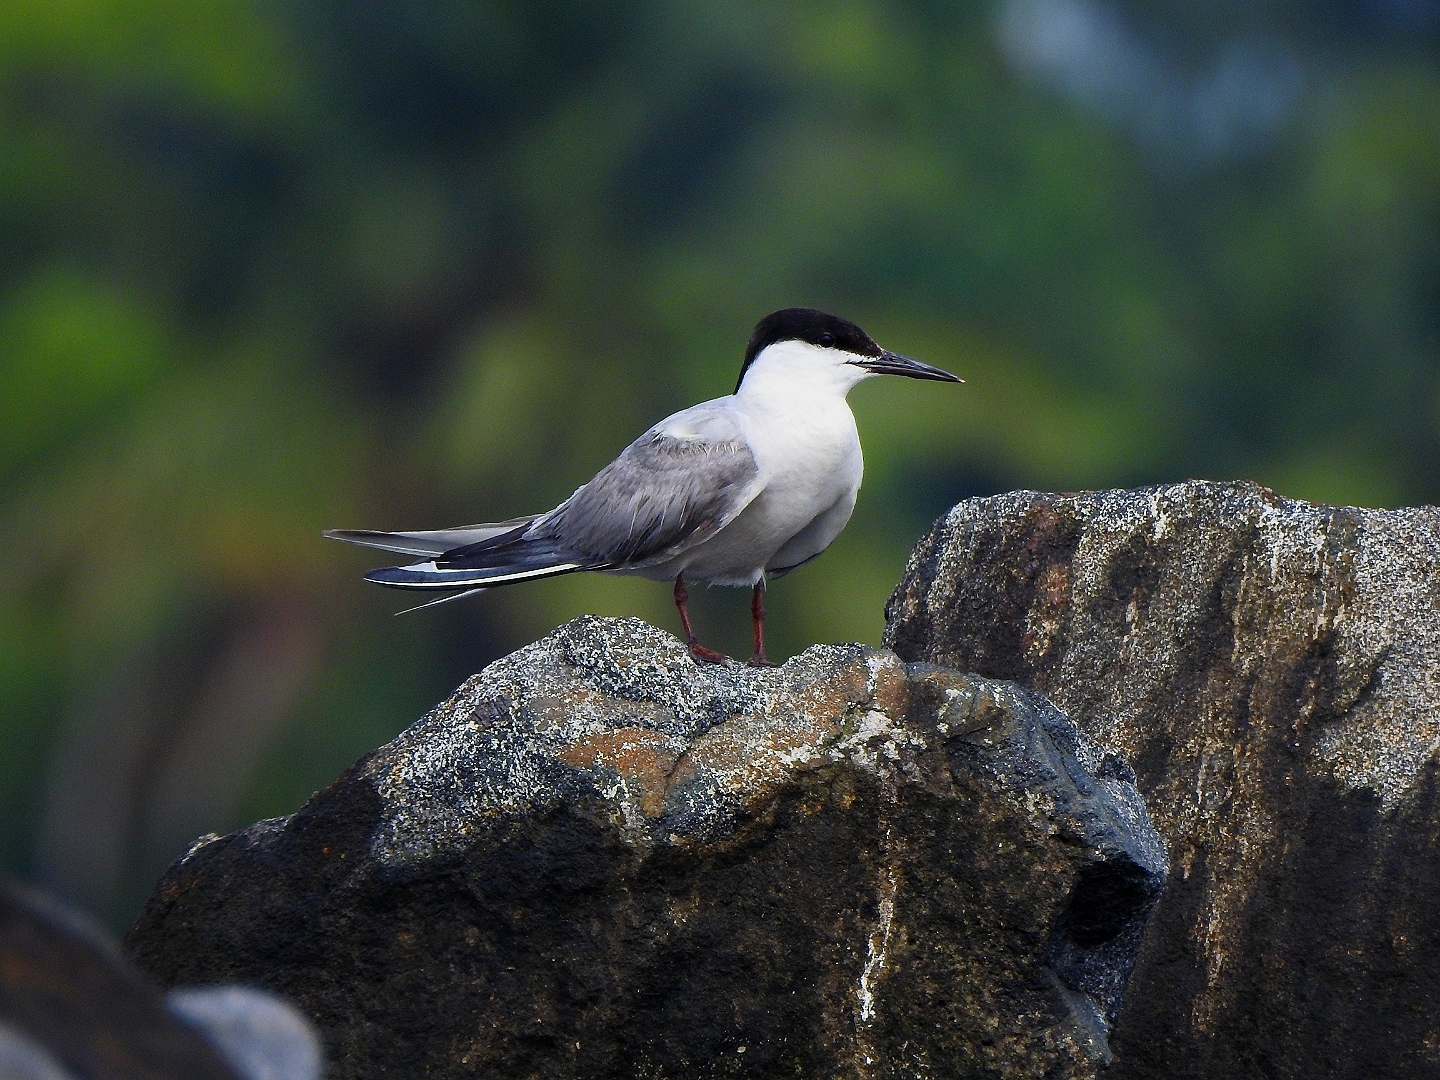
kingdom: Animalia
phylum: Chordata
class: Aves
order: Charadriiformes
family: Laridae
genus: Sterna
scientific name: Sterna hirundo
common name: Common tern
